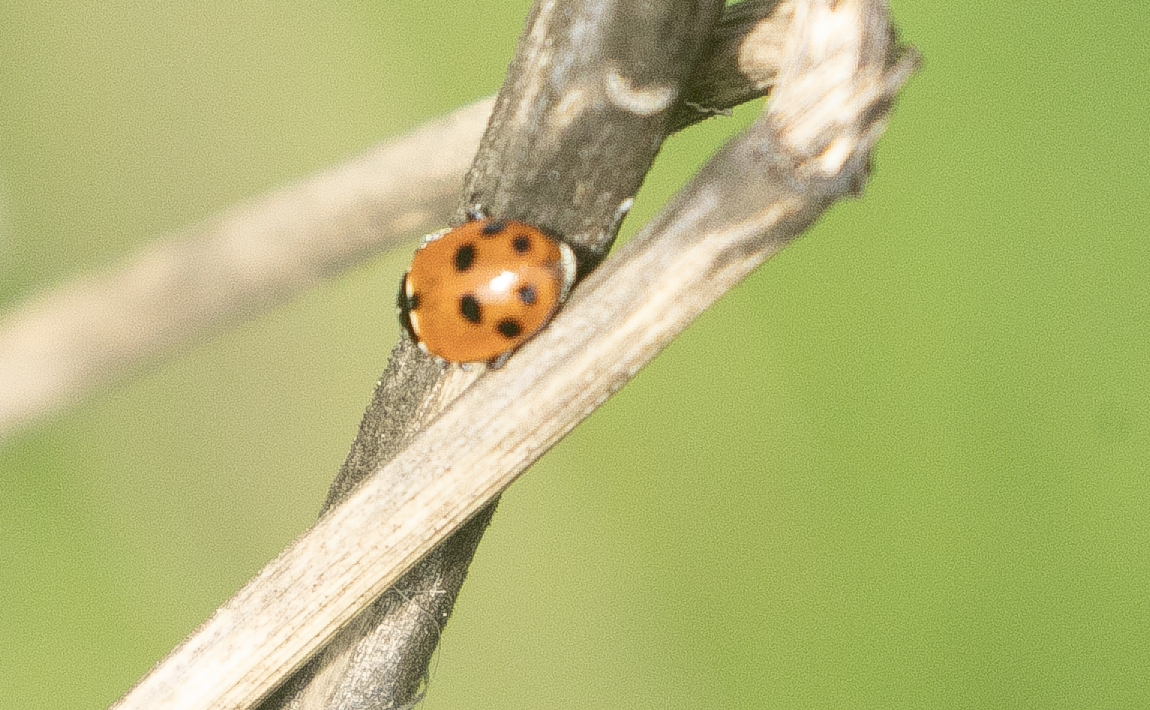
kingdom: Animalia
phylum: Arthropoda
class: Insecta
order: Coleoptera
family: Coccinellidae
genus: Hippodamia
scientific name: Hippodamia variegata
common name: Ladybird beetle
